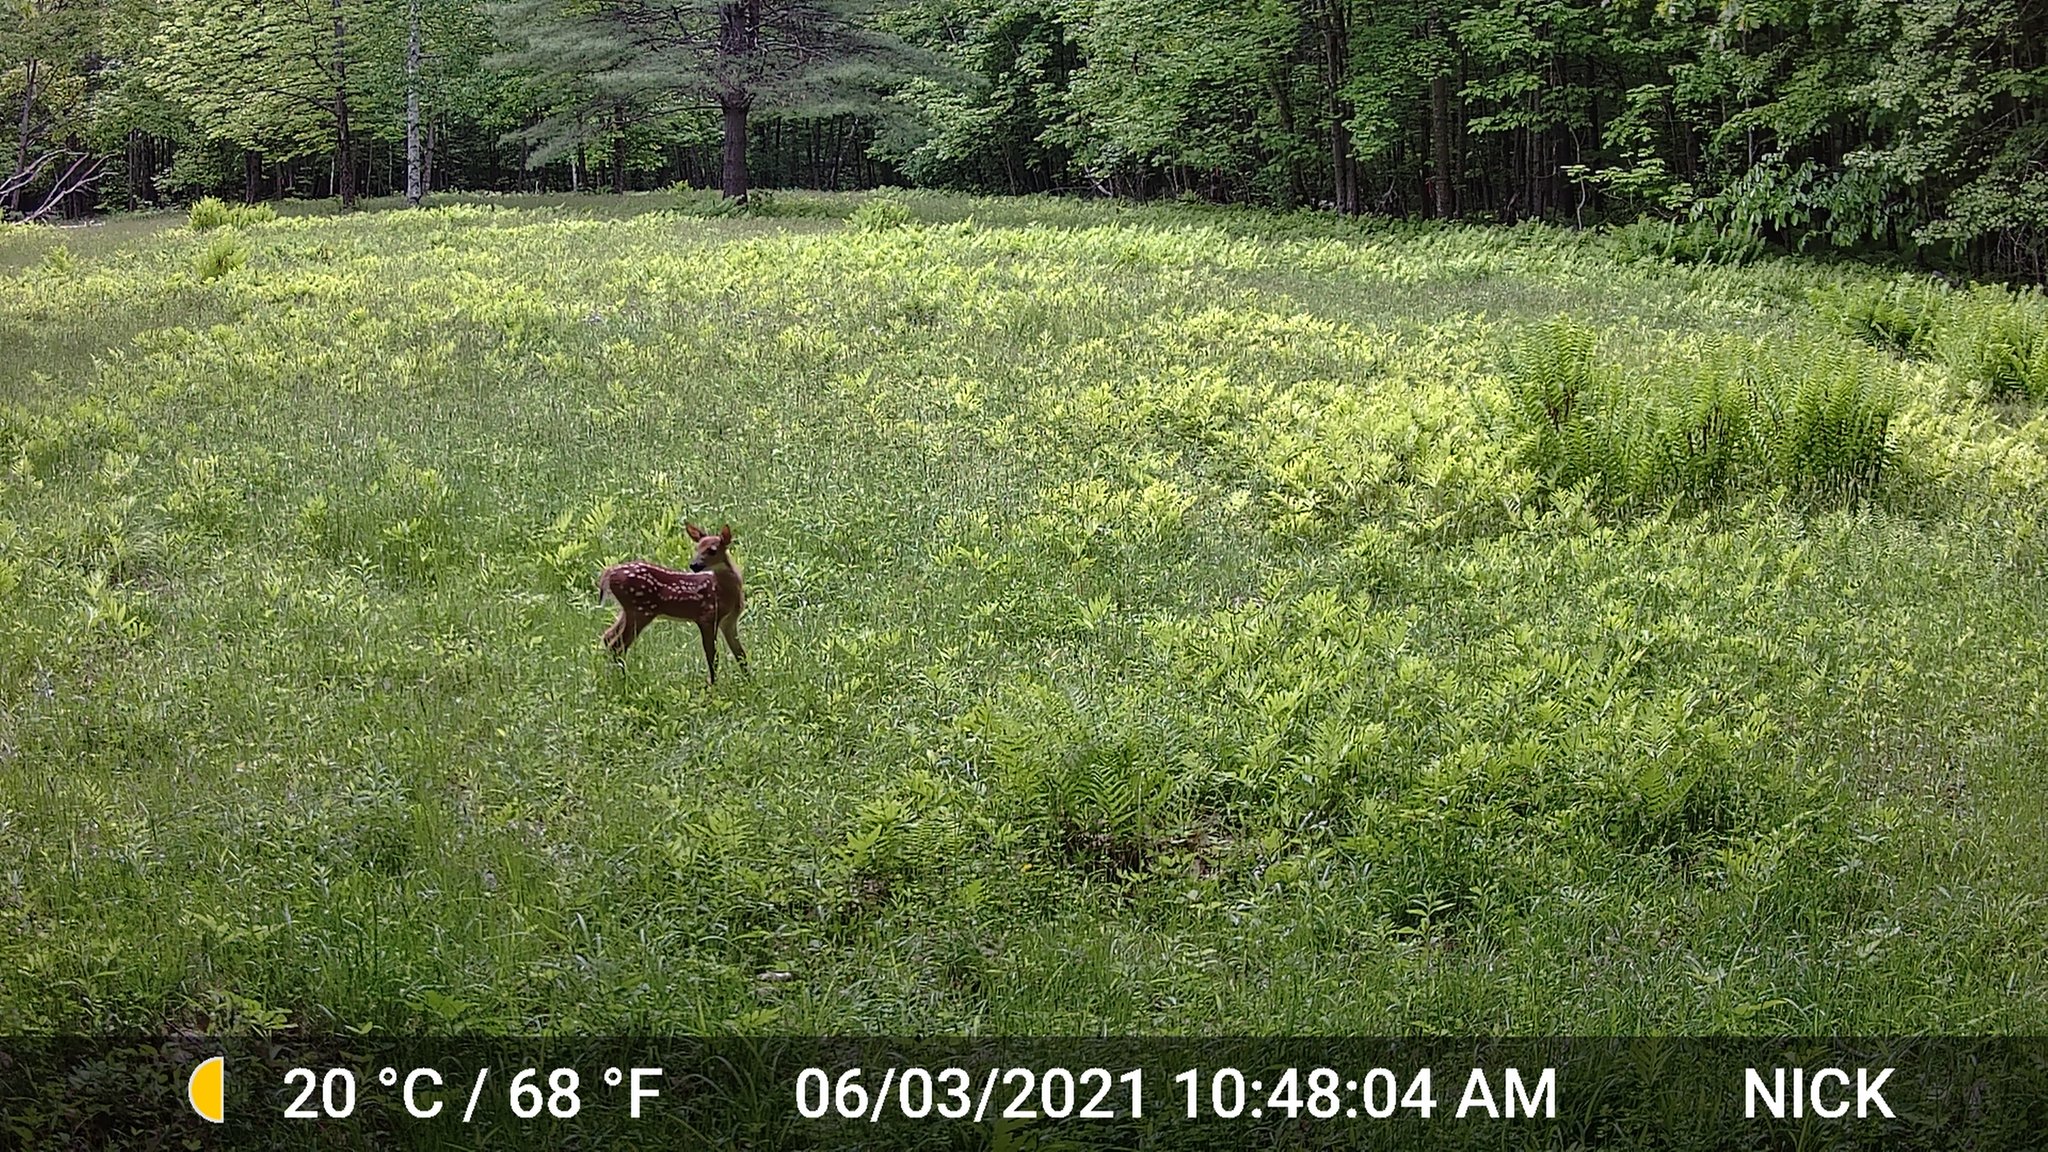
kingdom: Animalia
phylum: Chordata
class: Mammalia
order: Artiodactyla
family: Cervidae
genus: Odocoileus
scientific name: Odocoileus virginianus
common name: White-tailed deer
